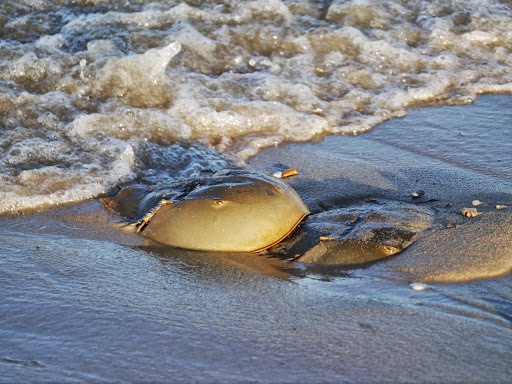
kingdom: Animalia
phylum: Arthropoda
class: Merostomata
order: Xiphosurida
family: Limulidae
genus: Limulus
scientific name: Limulus polyphemus
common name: Horseshoe crab
